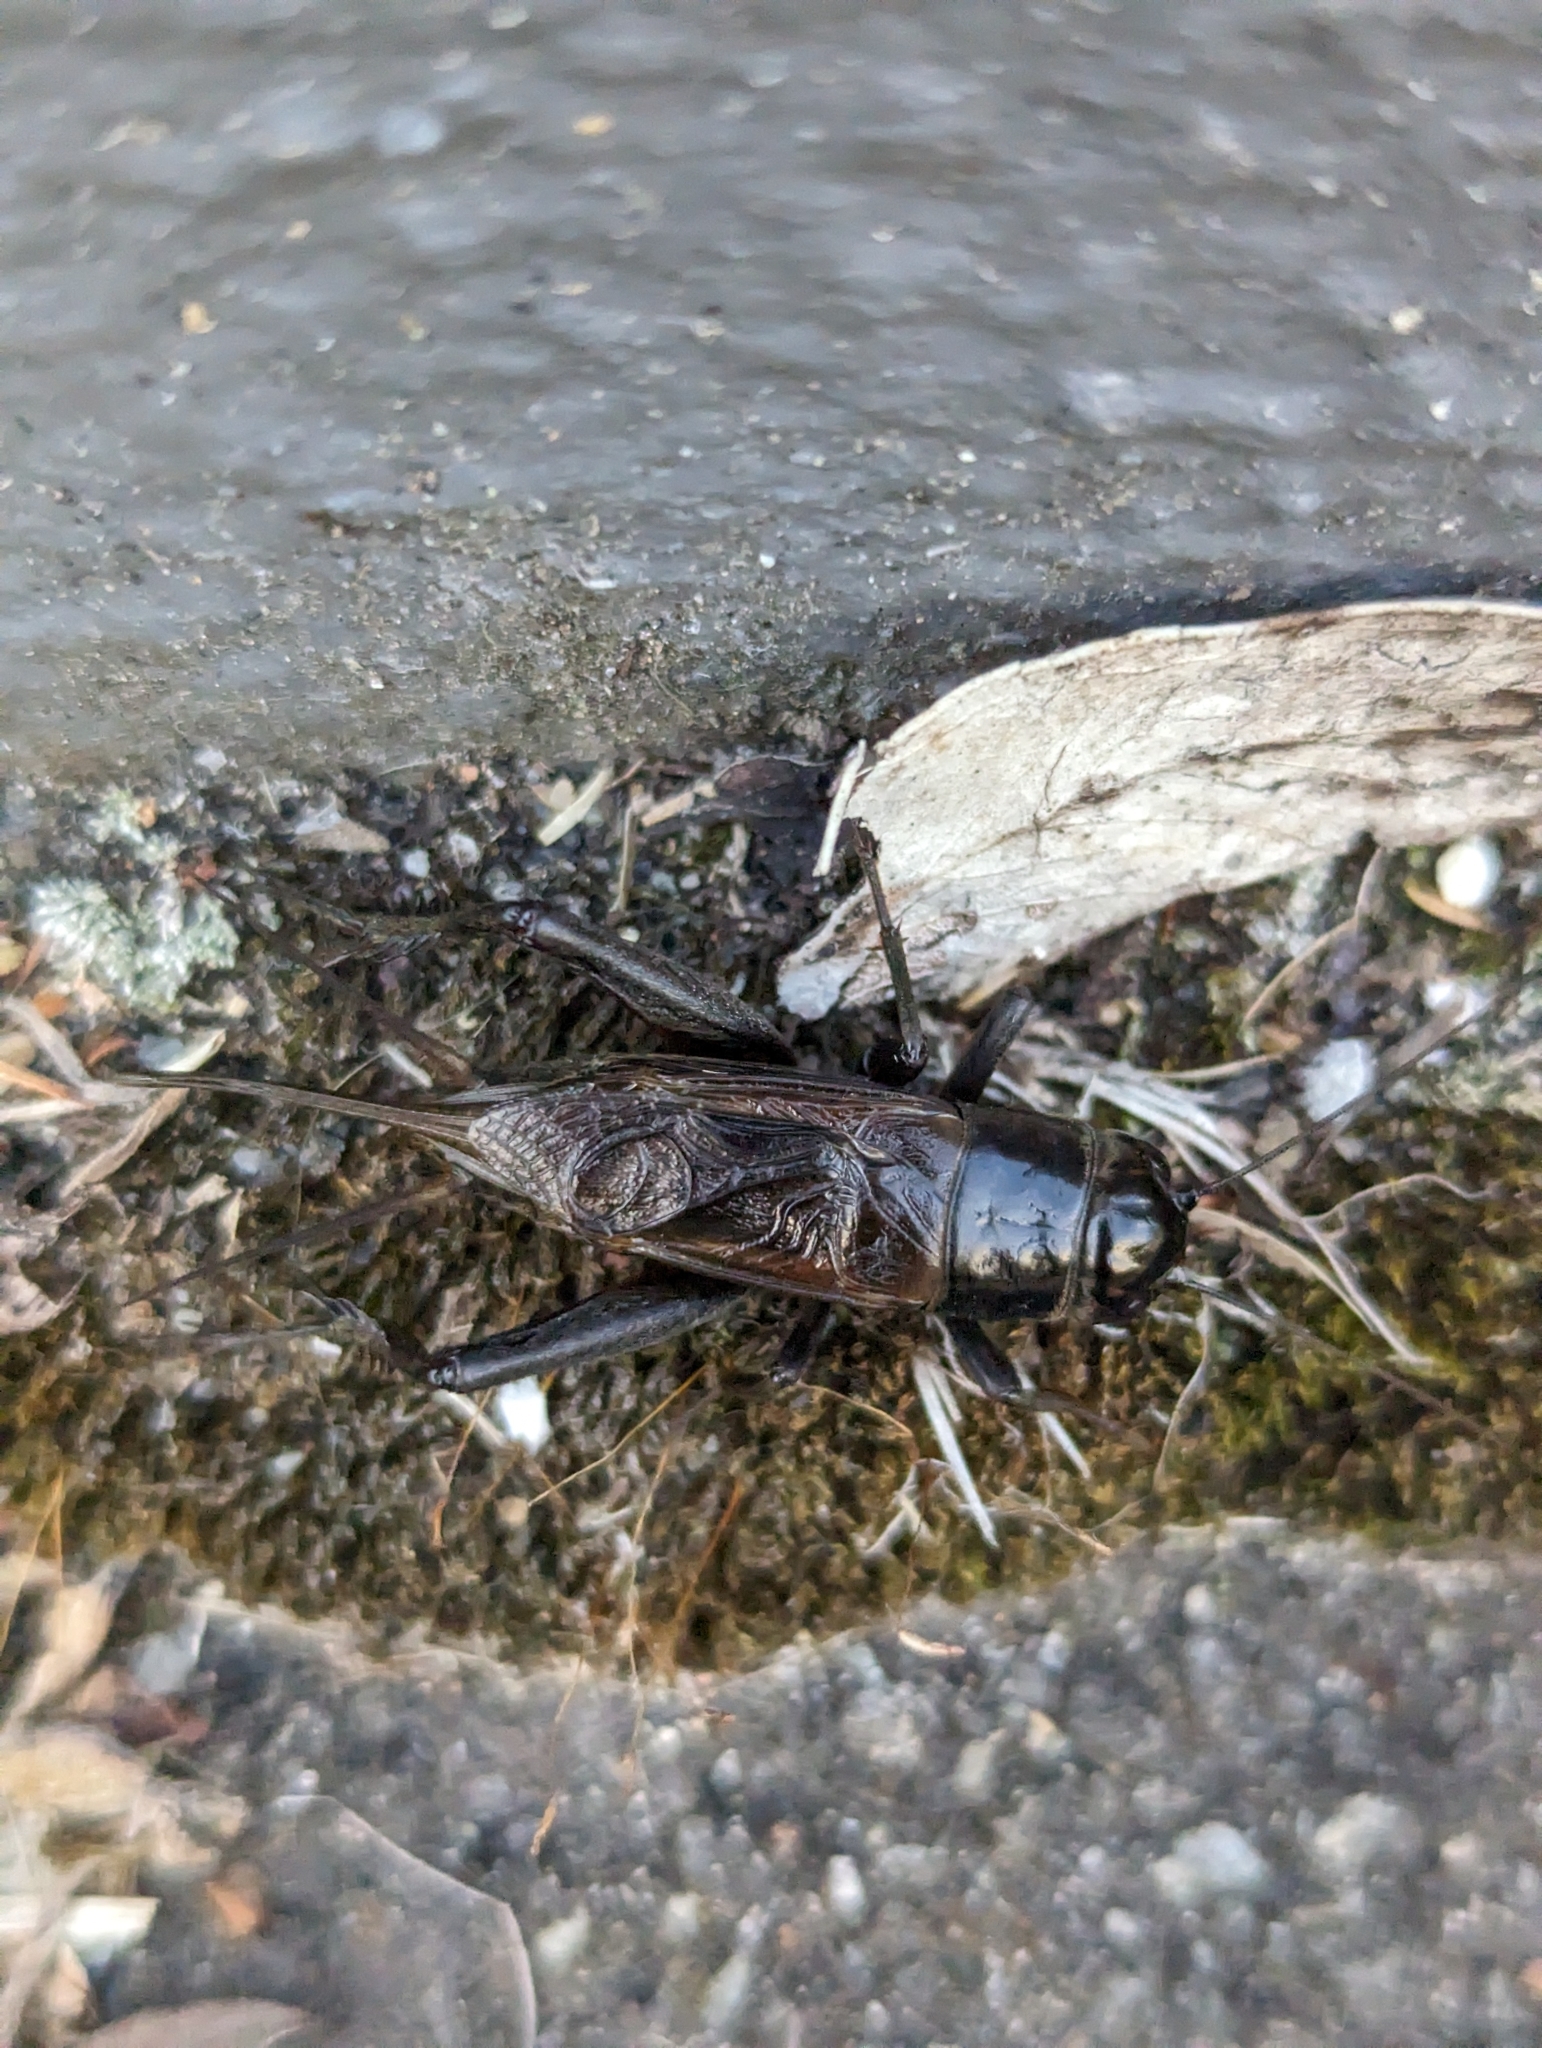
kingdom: Animalia
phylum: Arthropoda
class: Insecta
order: Orthoptera
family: Gryllidae
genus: Teleogryllus
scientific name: Teleogryllus commodus
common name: Black field cricket
